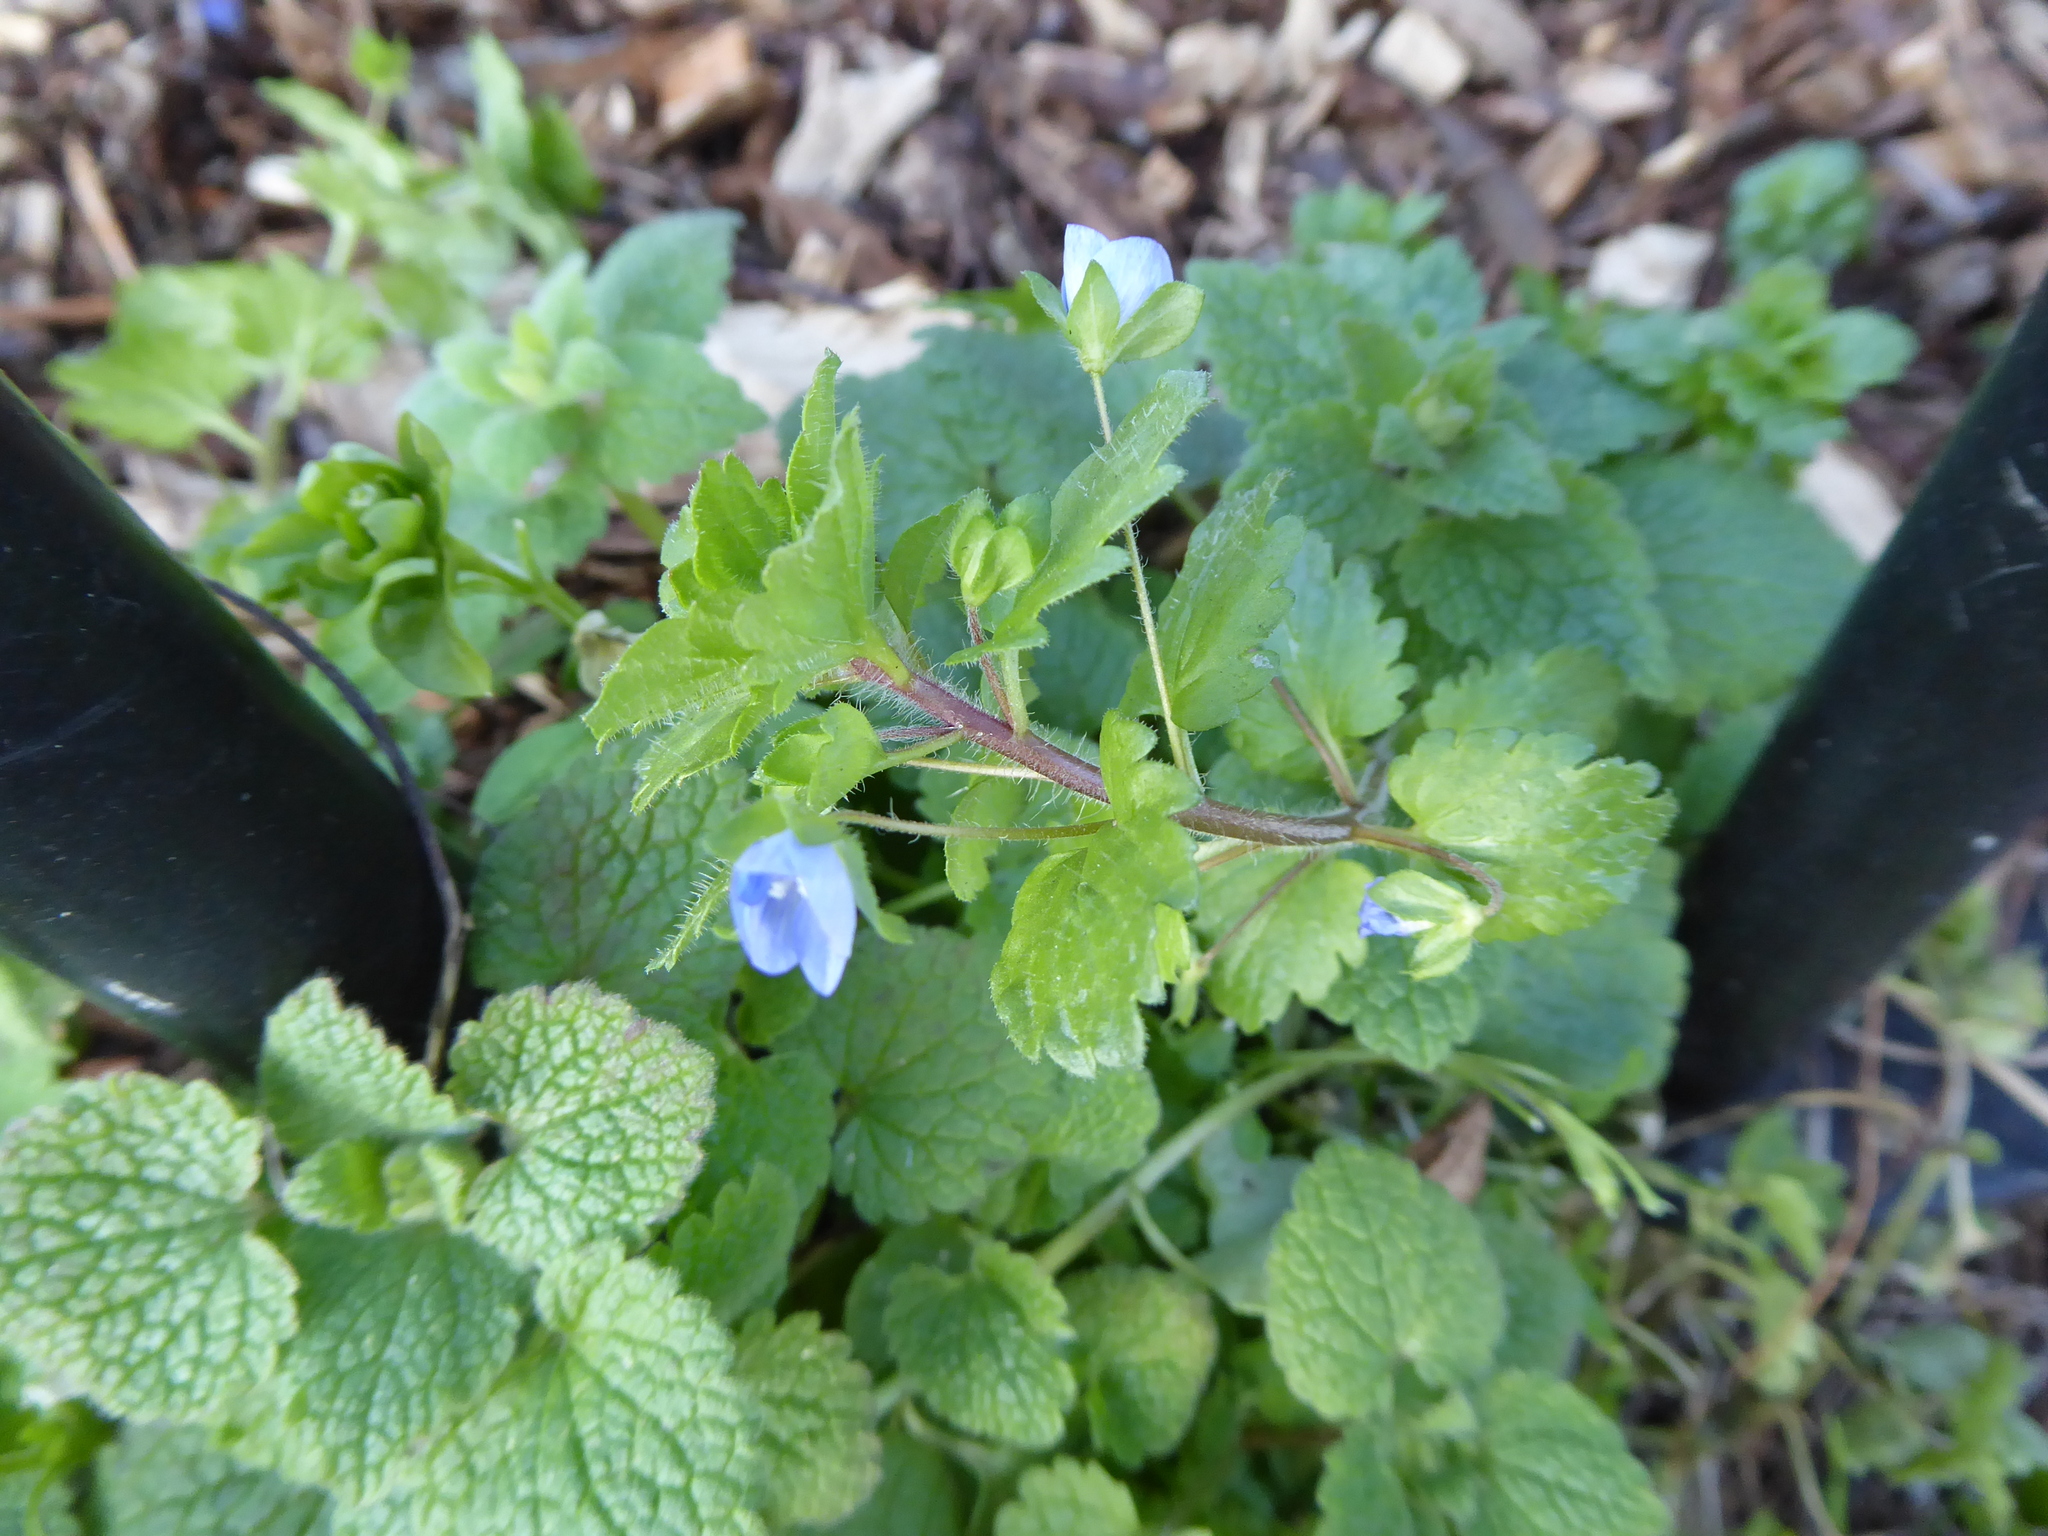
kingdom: Plantae
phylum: Tracheophyta
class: Magnoliopsida
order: Lamiales
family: Plantaginaceae
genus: Veronica
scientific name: Veronica persica
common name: Common field-speedwell
